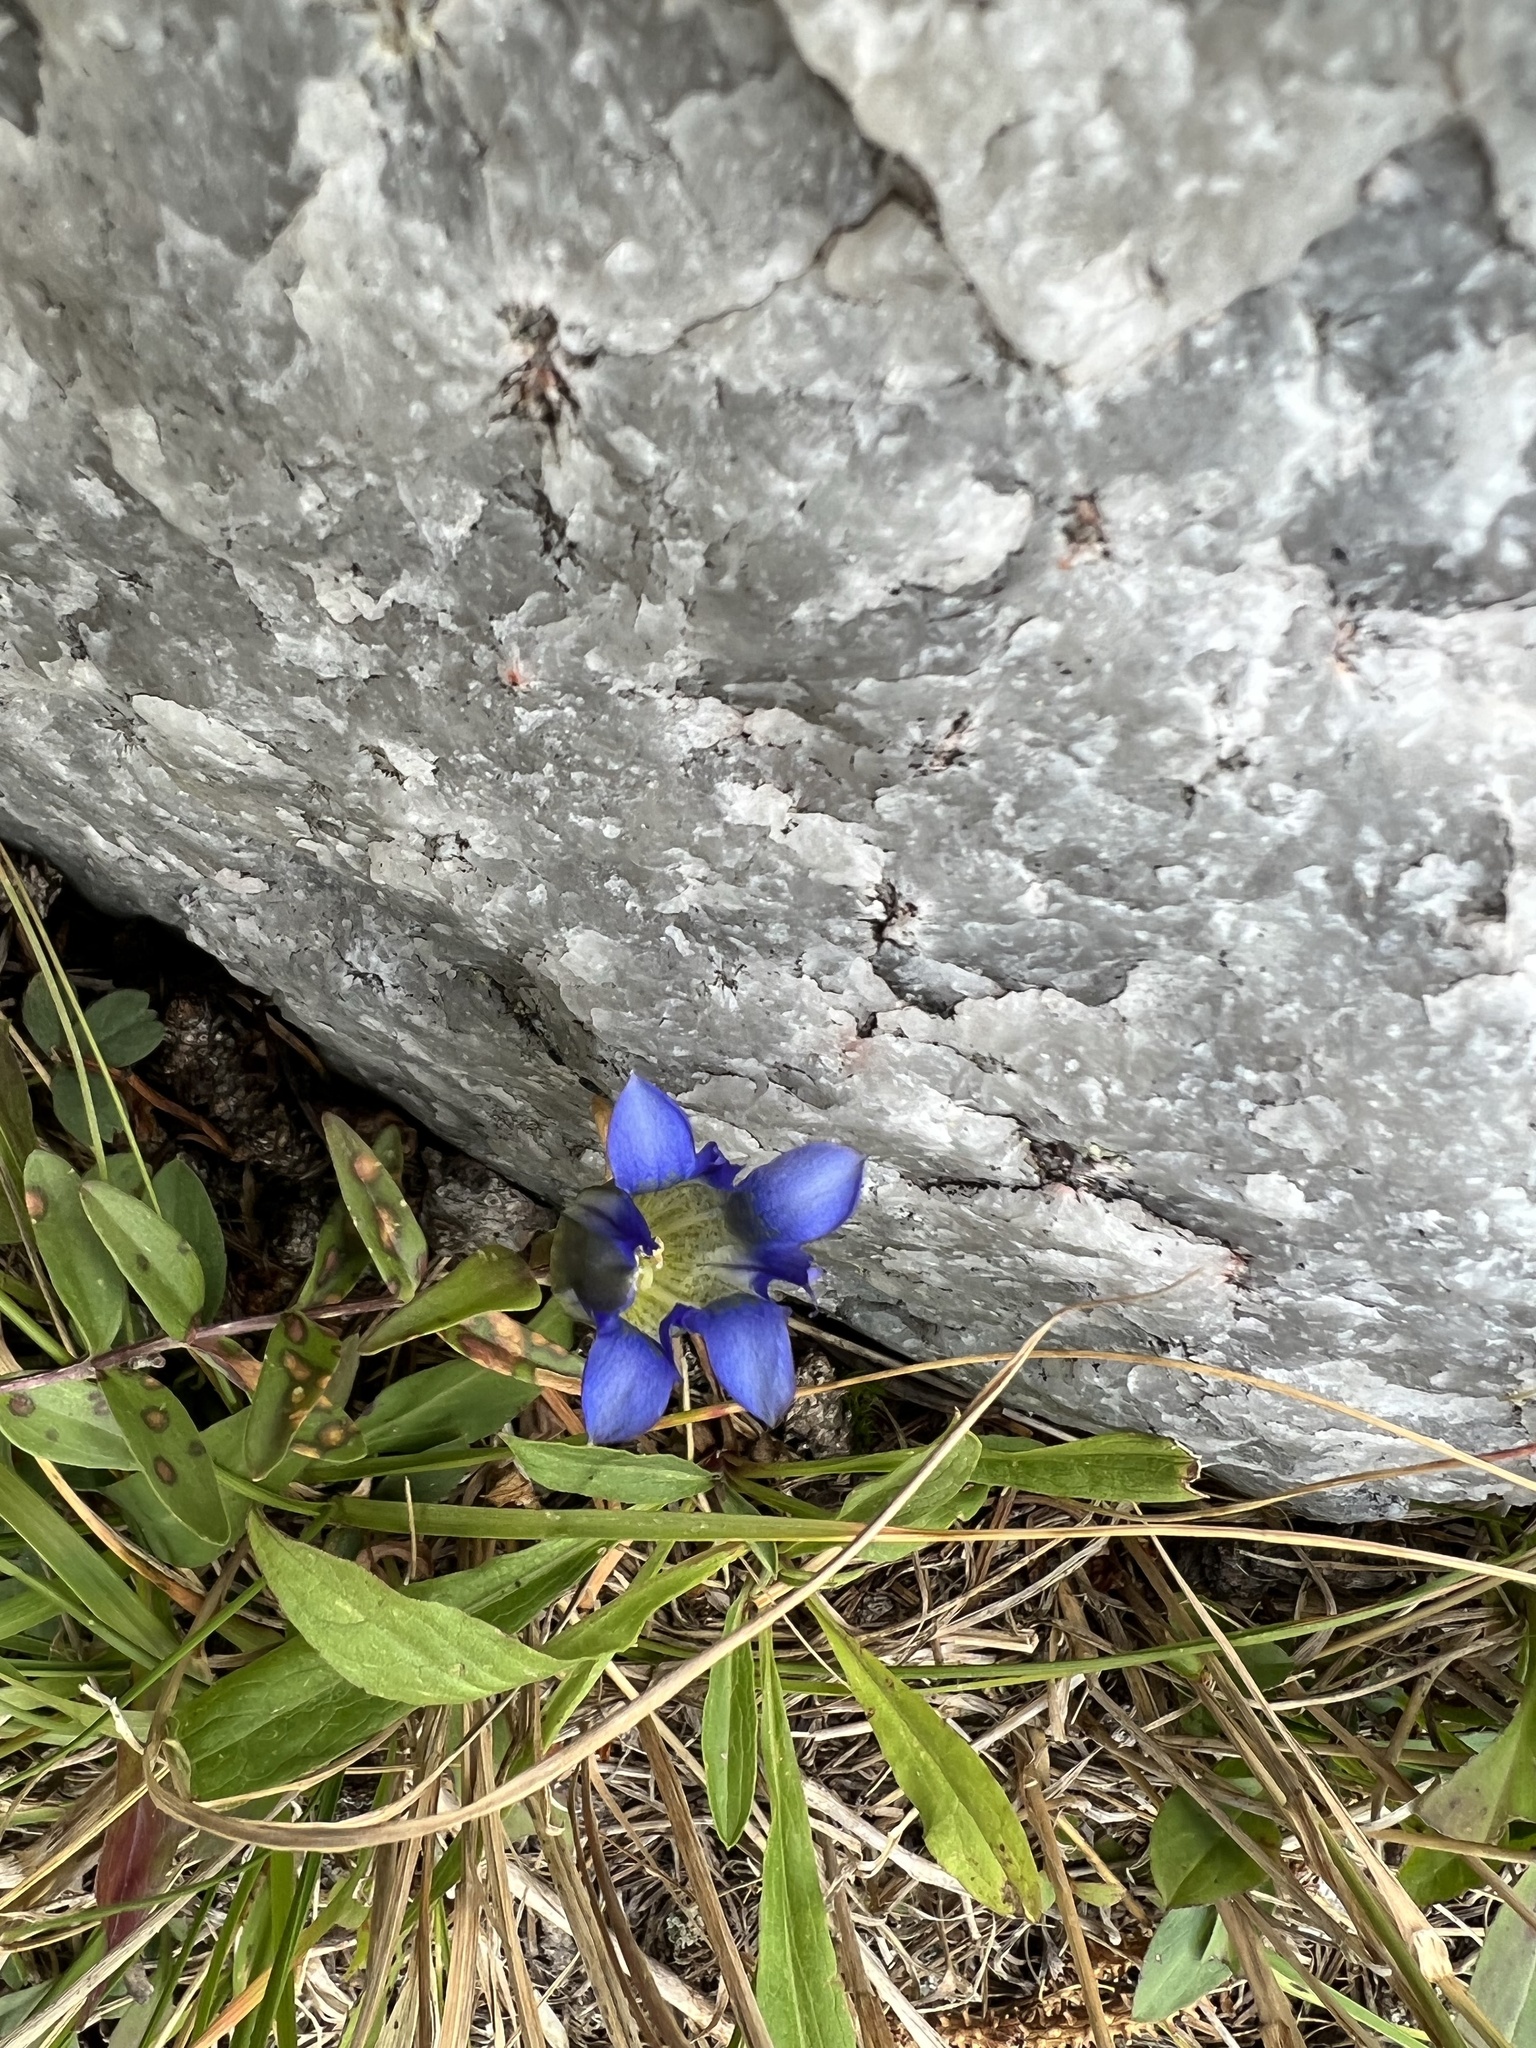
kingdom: Plantae
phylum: Tracheophyta
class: Magnoliopsida
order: Gentianales
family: Gentianaceae
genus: Gentiana
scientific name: Gentiana parryi
